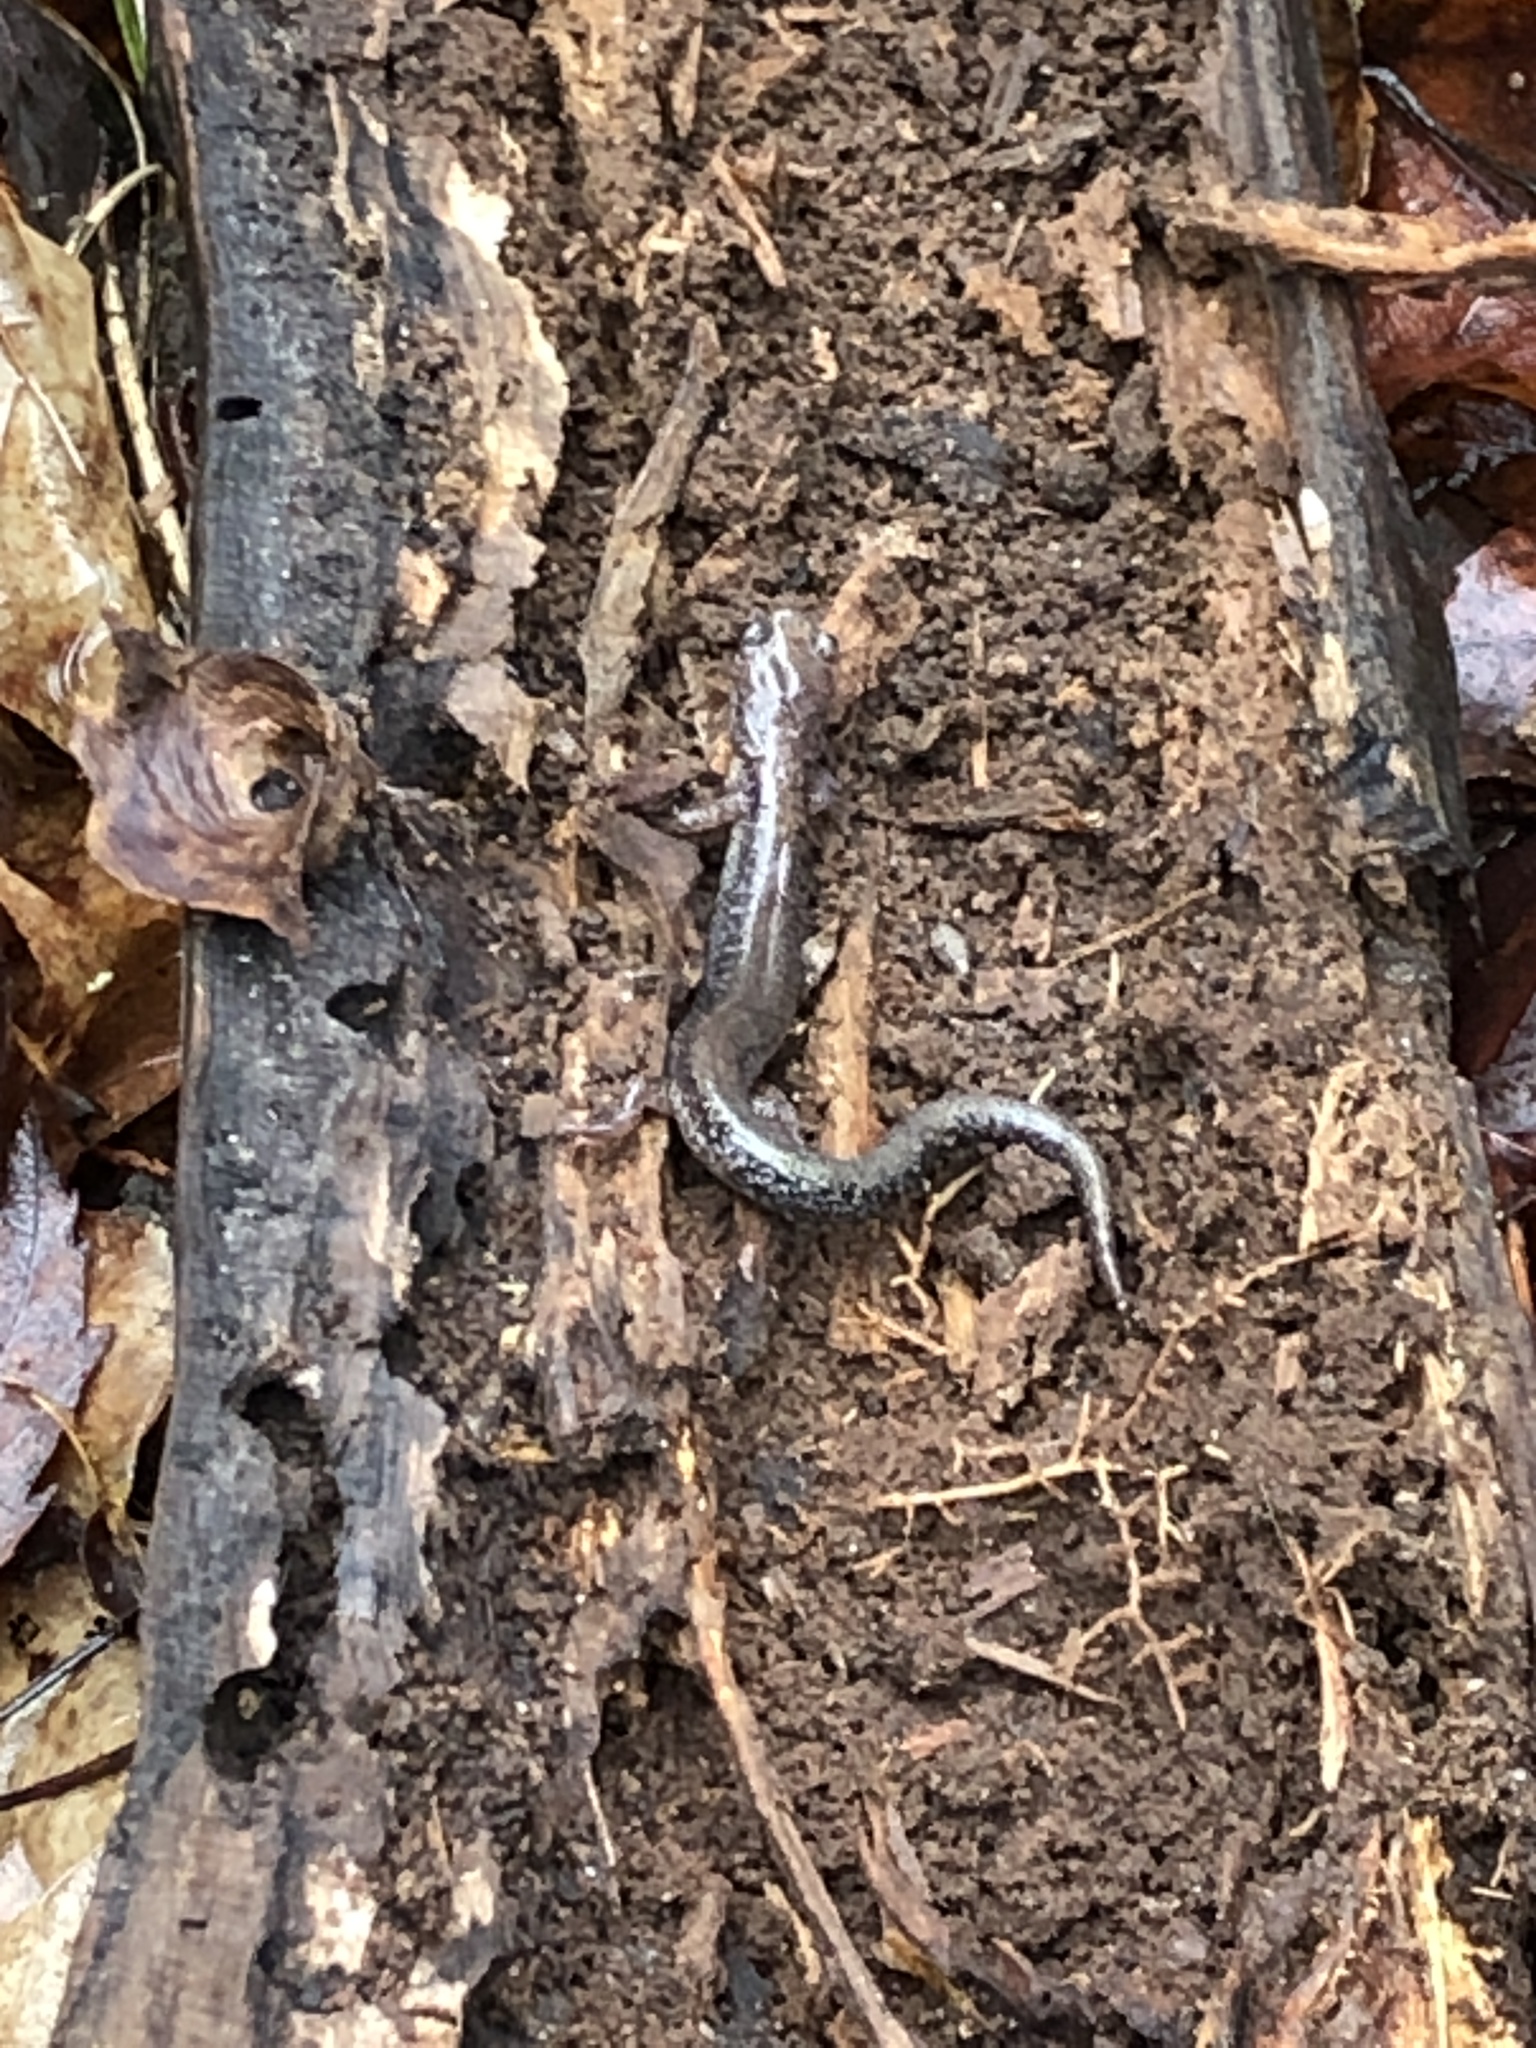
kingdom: Animalia
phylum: Chordata
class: Amphibia
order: Caudata
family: Plethodontidae
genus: Plethodon
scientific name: Plethodon cinereus
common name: Redback salamander
